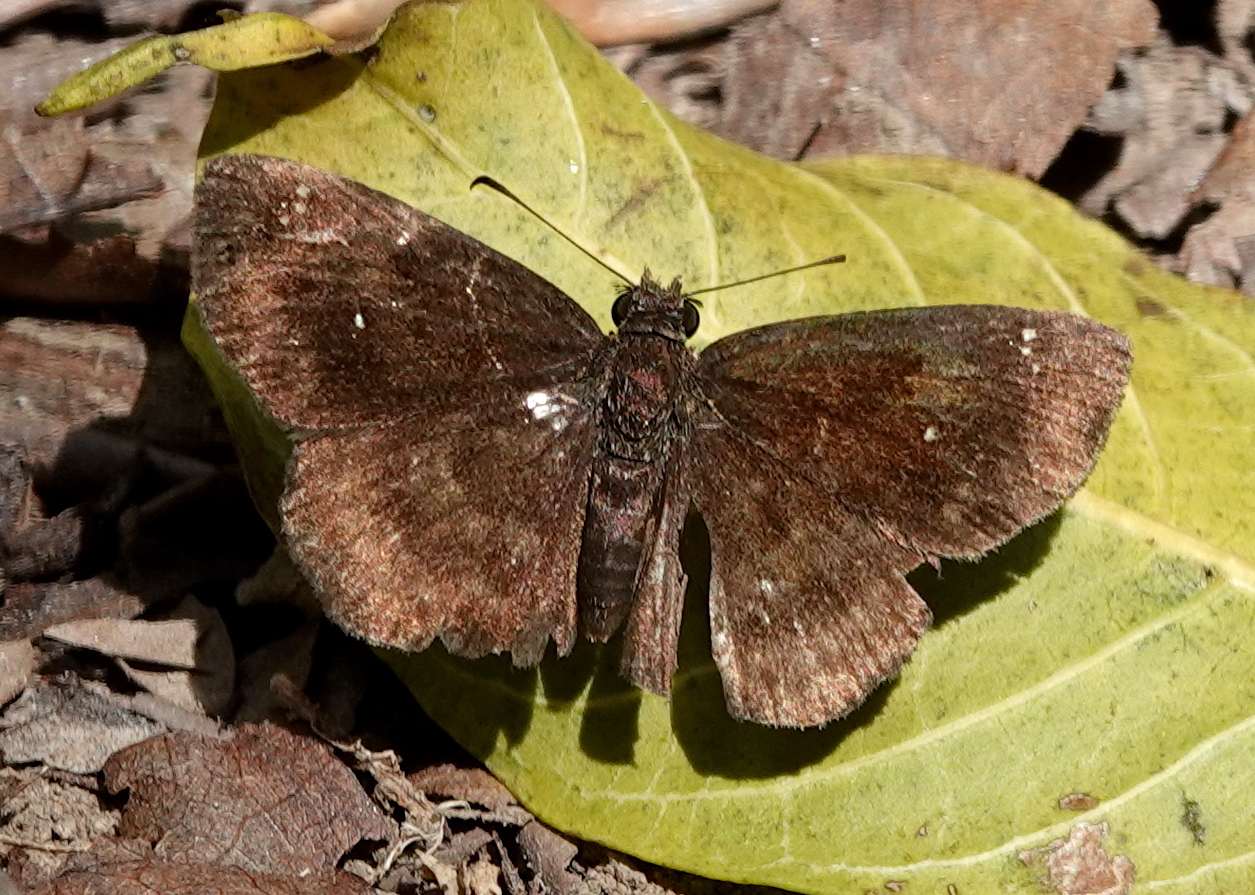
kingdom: Animalia
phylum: Arthropoda
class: Insecta
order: Lepidoptera
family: Hesperiidae
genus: Staphylus
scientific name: Staphylus azteca
